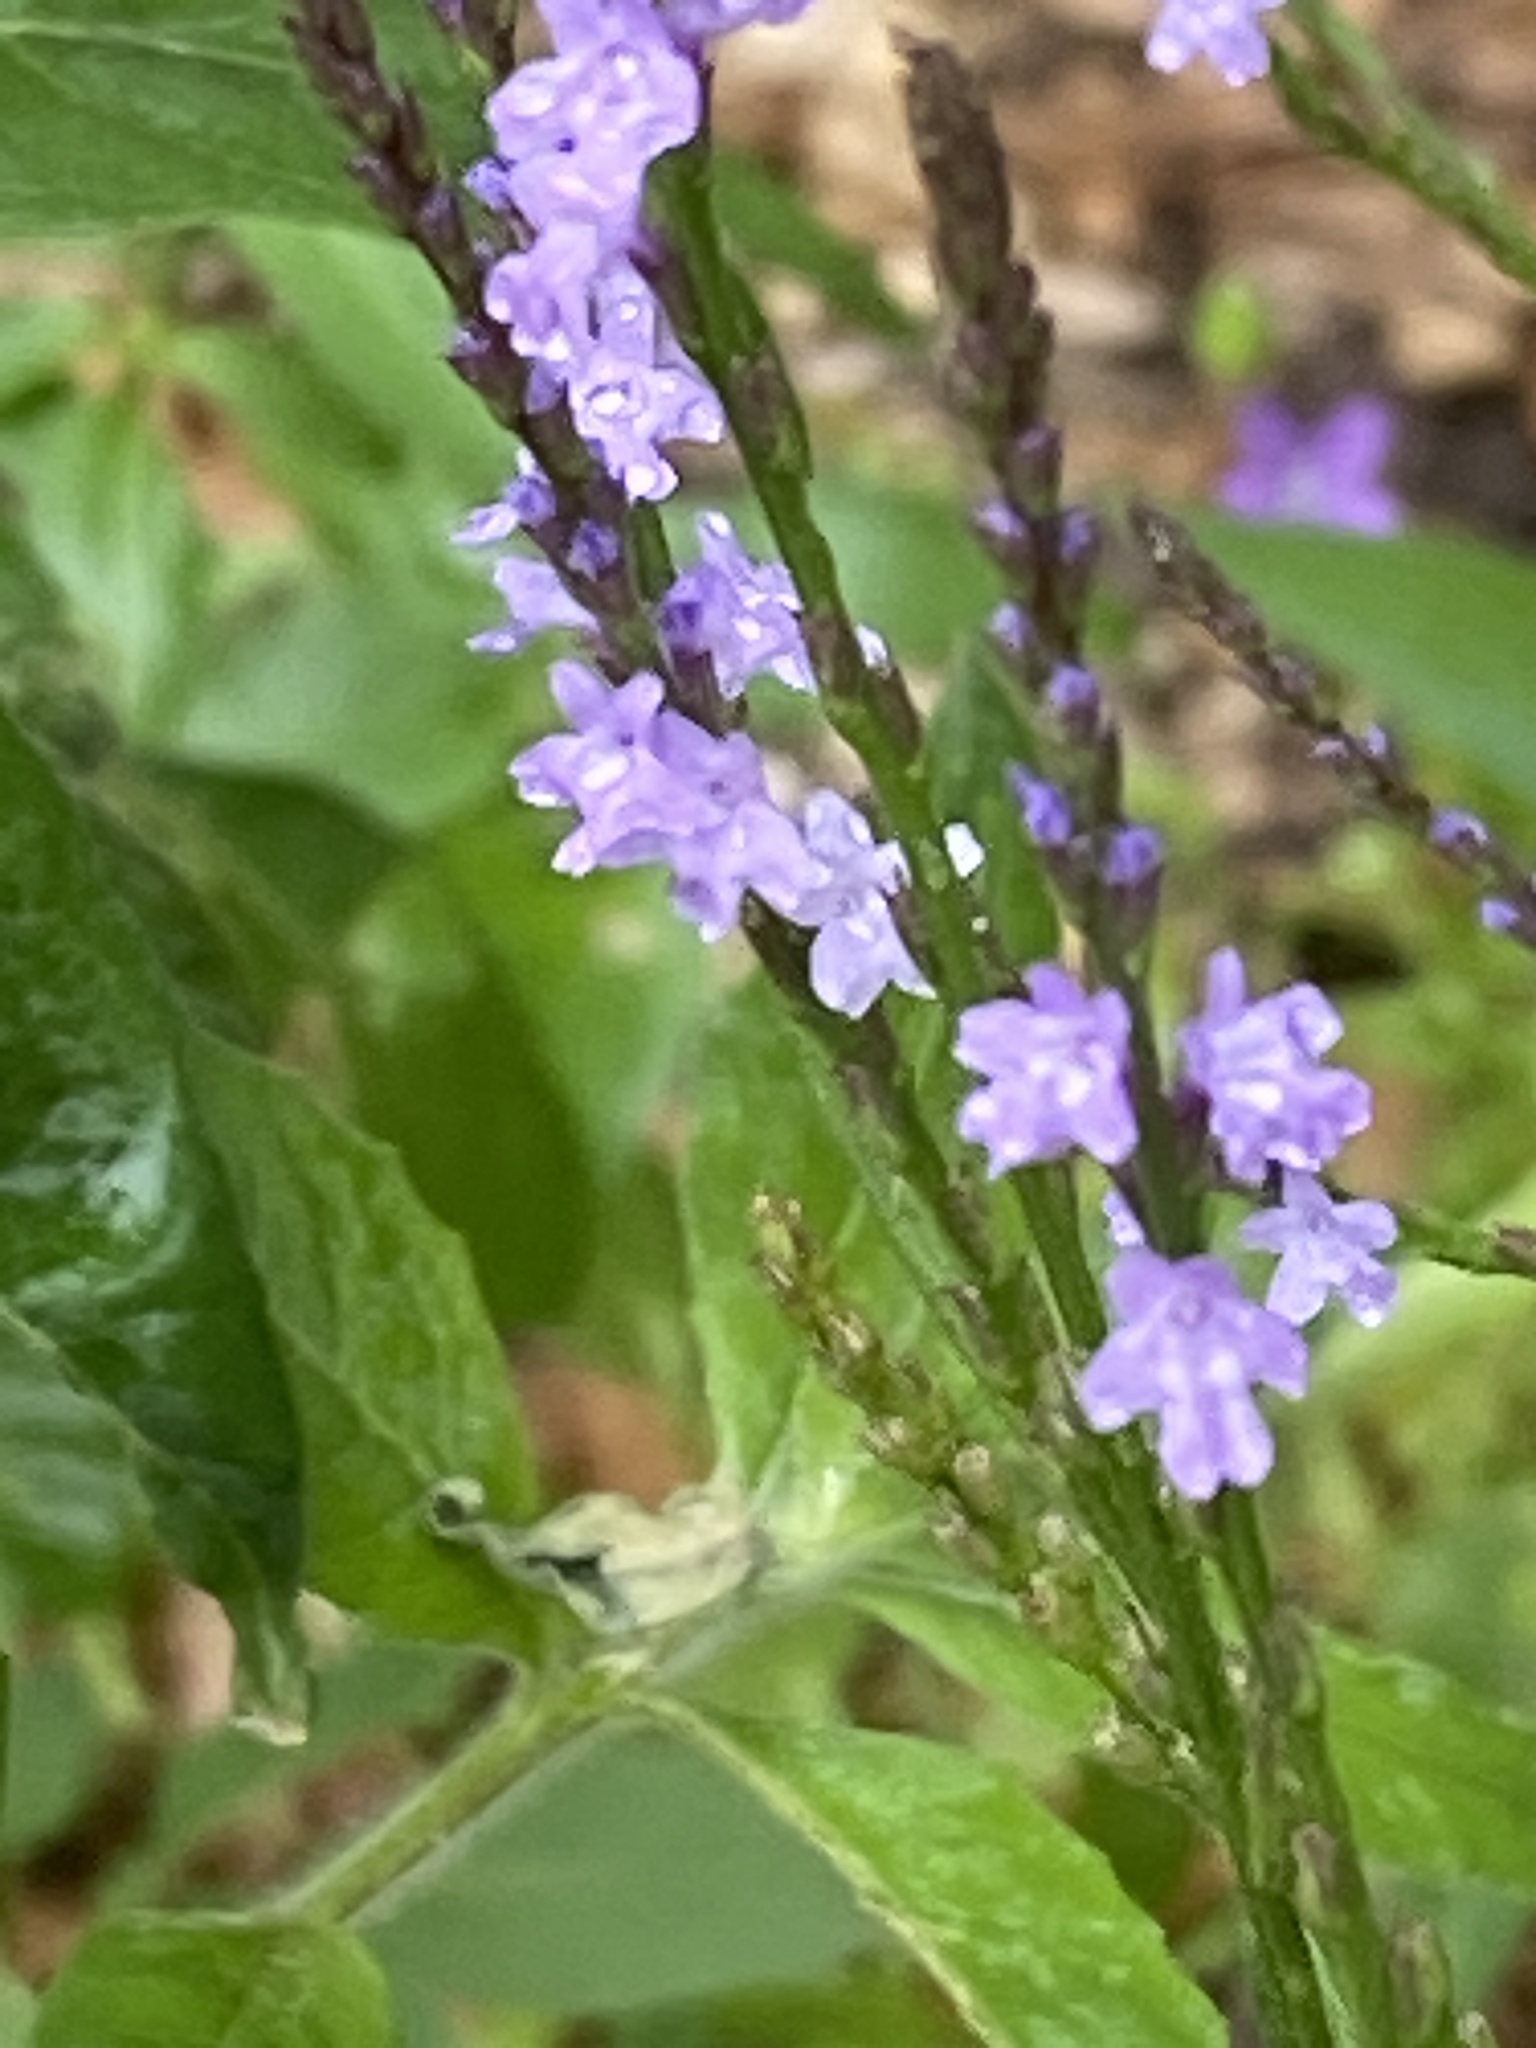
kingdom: Plantae
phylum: Tracheophyta
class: Magnoliopsida
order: Lamiales
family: Verbenaceae
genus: Verbena
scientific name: Verbena halei
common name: Texas vervain
